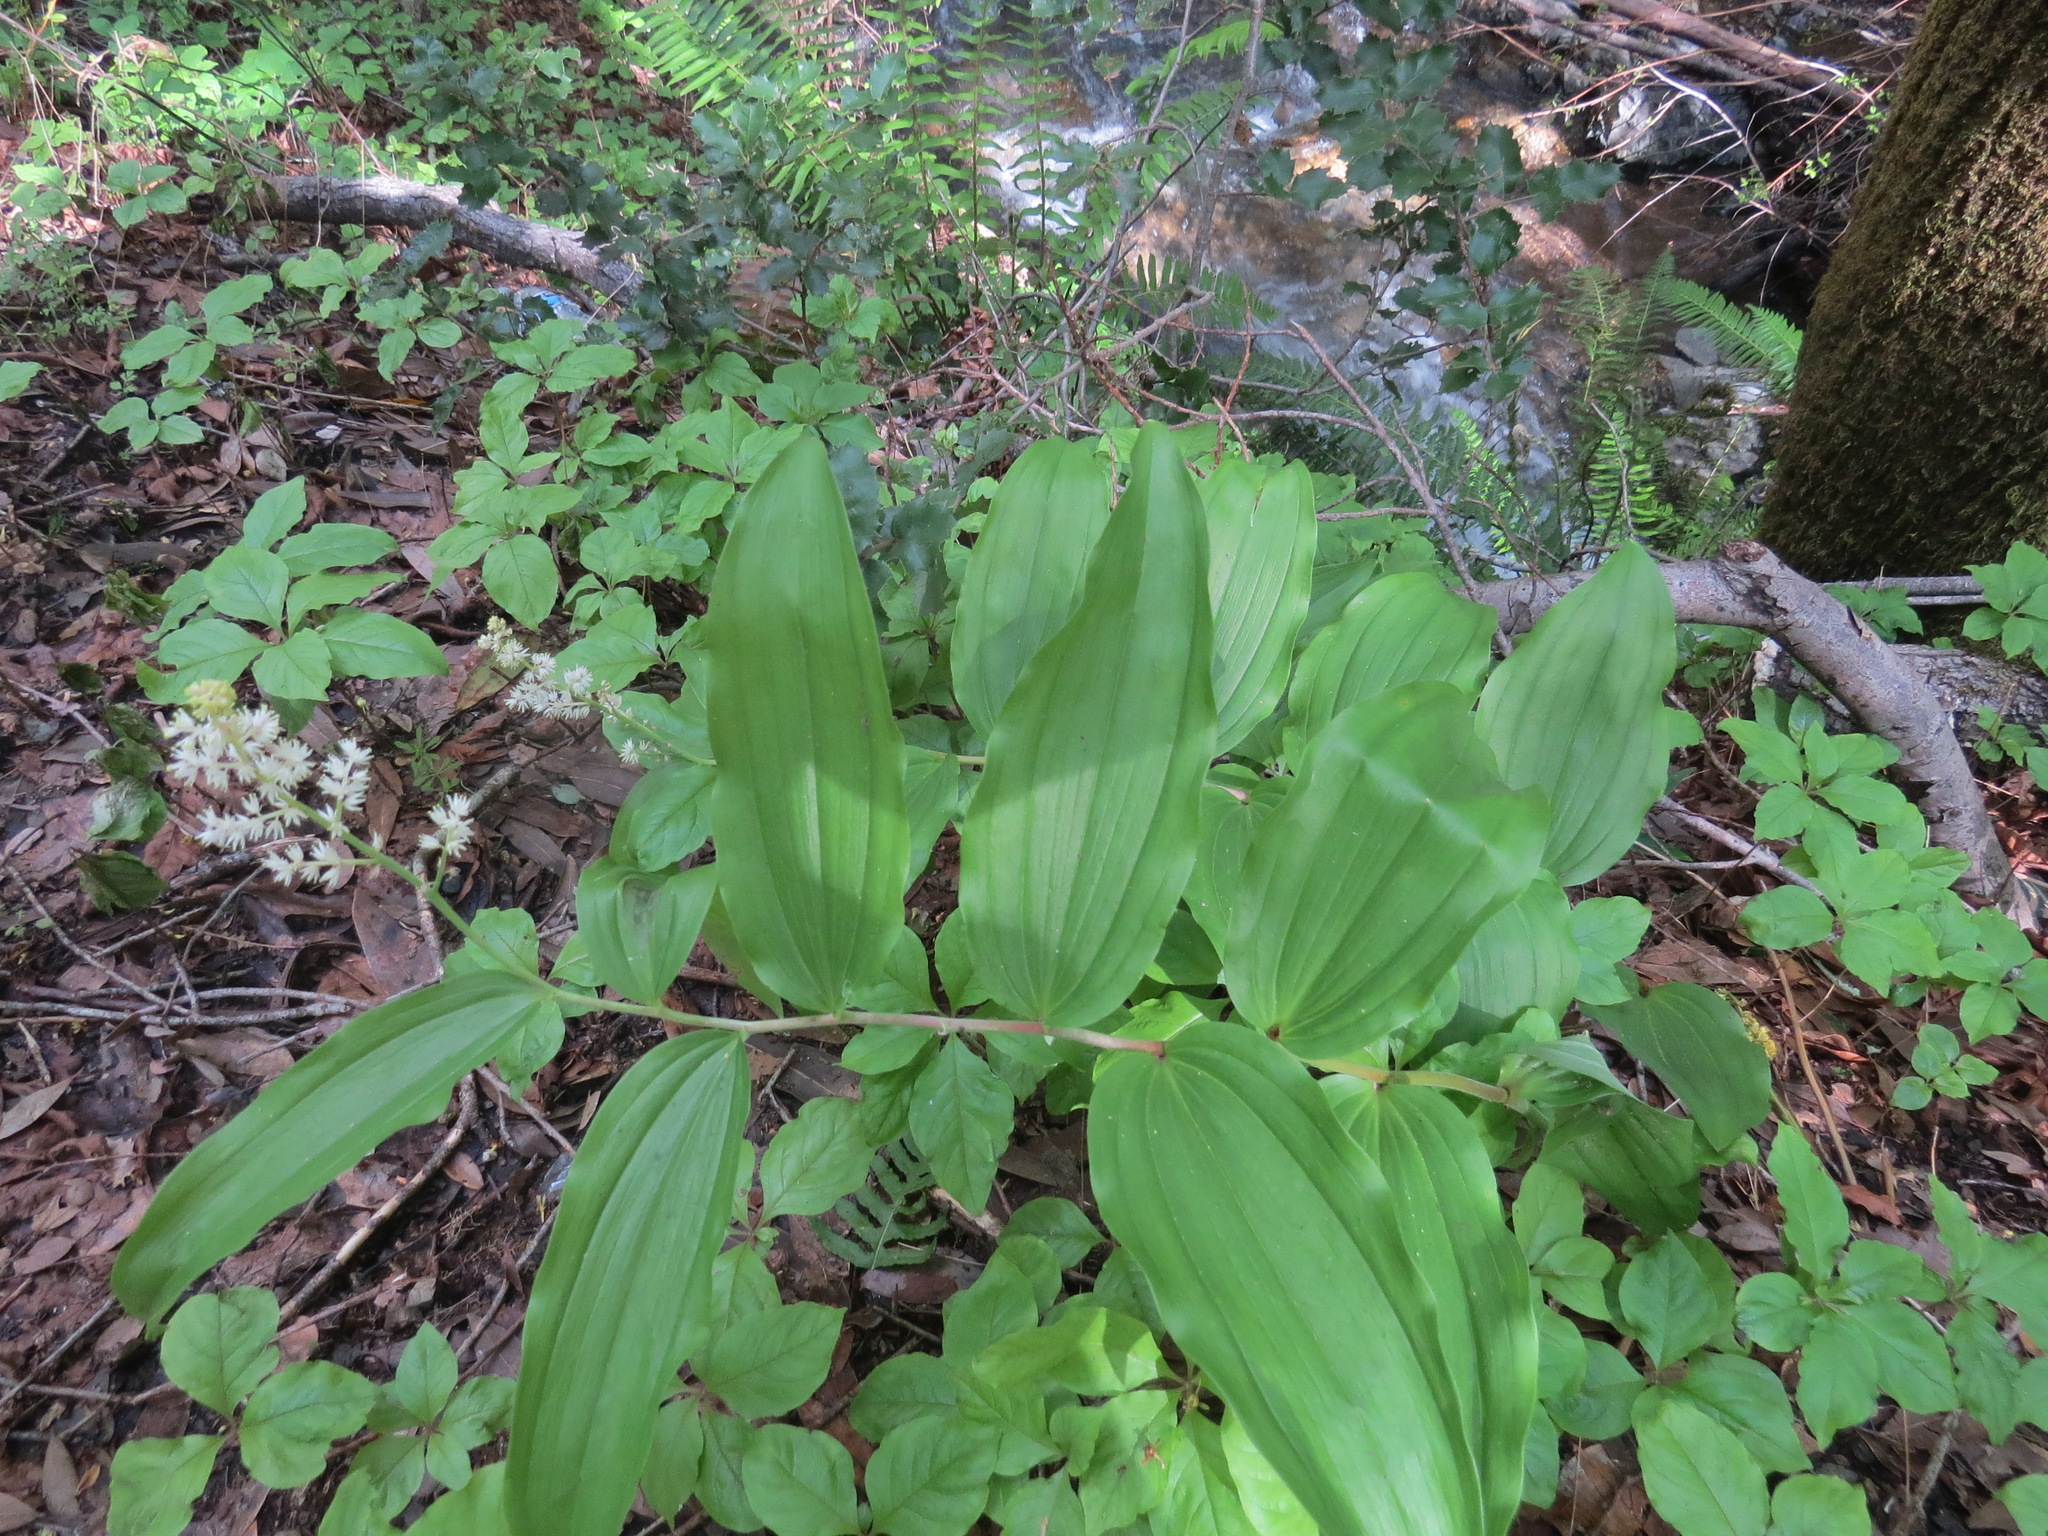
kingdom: Plantae
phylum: Tracheophyta
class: Liliopsida
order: Asparagales
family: Asparagaceae
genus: Maianthemum
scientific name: Maianthemum racemosum
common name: False spikenard
